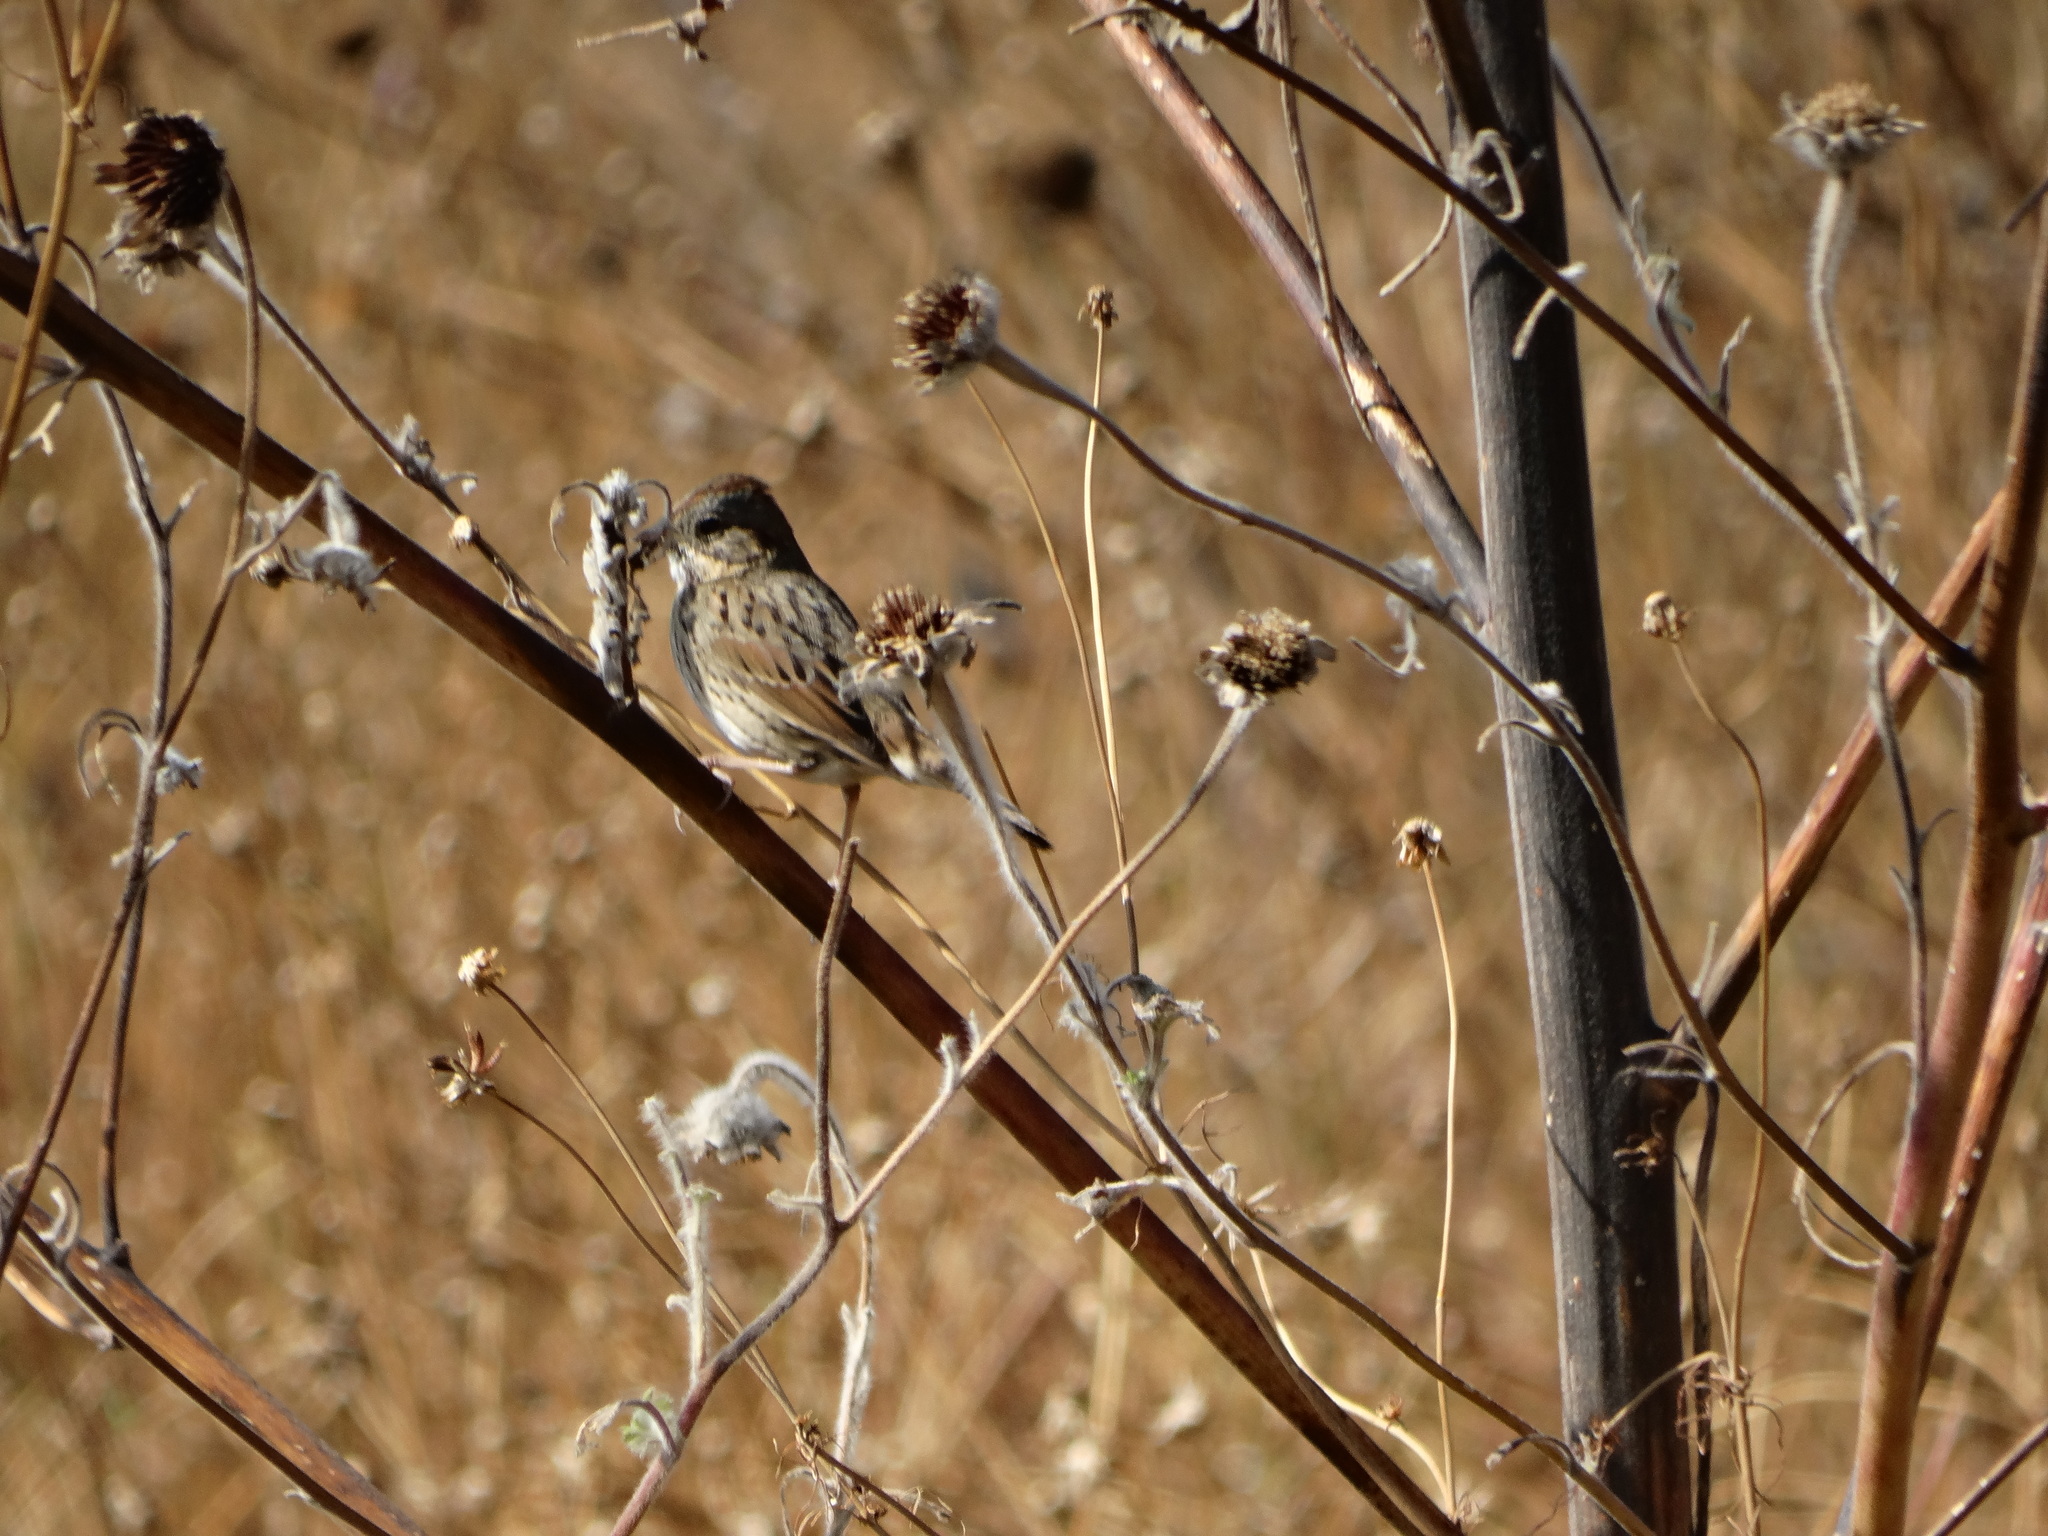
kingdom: Animalia
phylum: Chordata
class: Aves
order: Passeriformes
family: Passerellidae
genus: Melospiza
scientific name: Melospiza lincolnii
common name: Lincoln's sparrow
